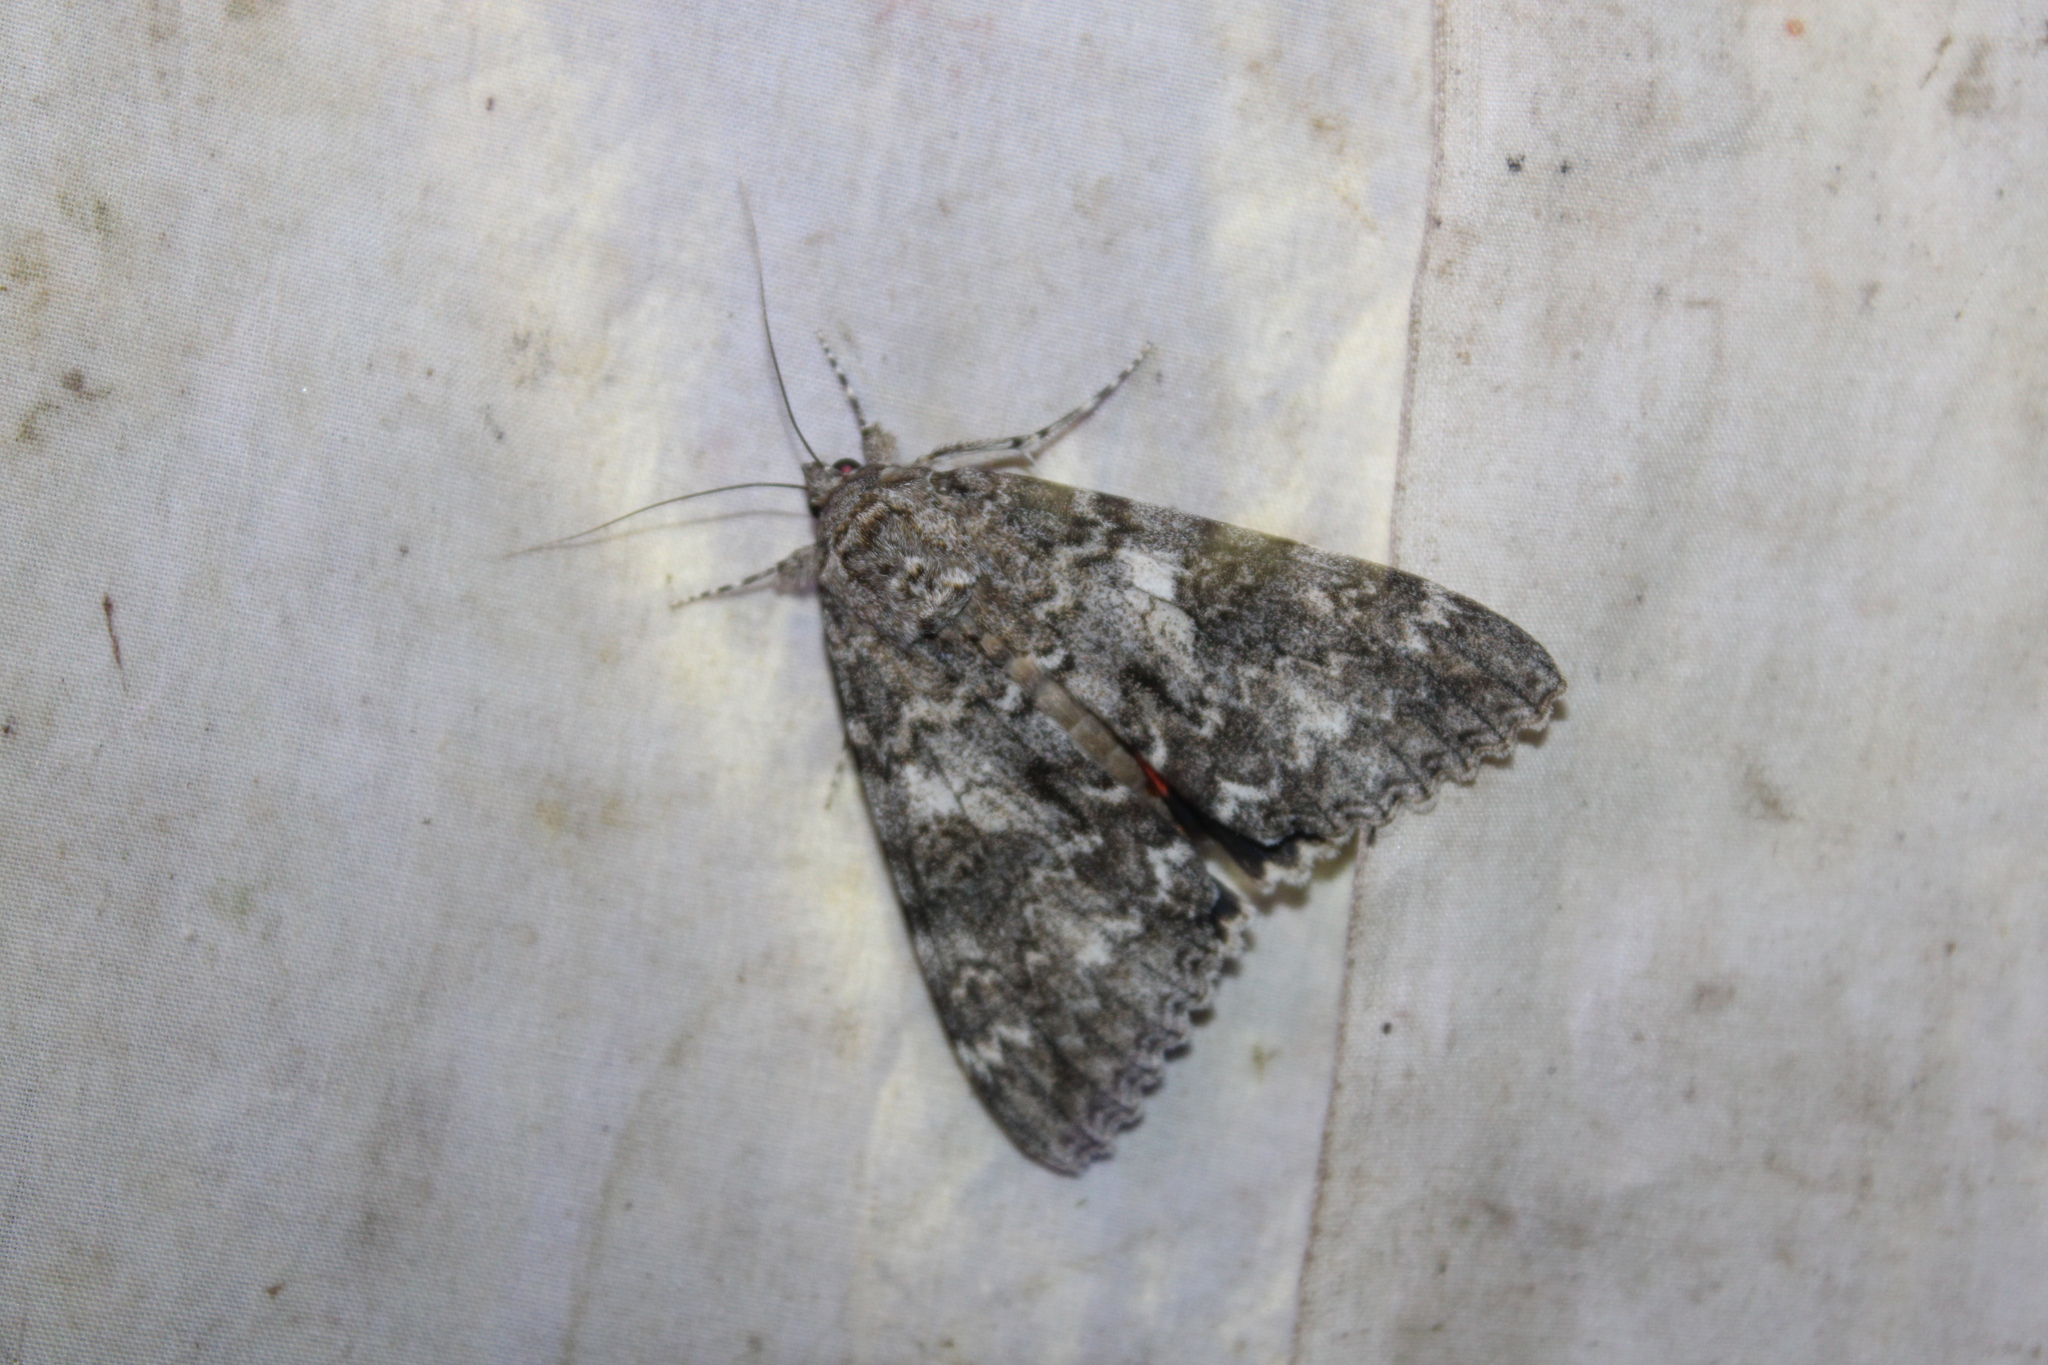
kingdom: Animalia
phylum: Arthropoda
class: Insecta
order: Lepidoptera
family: Erebidae
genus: Catocala
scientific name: Catocala unijuga
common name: Once-married underwing
